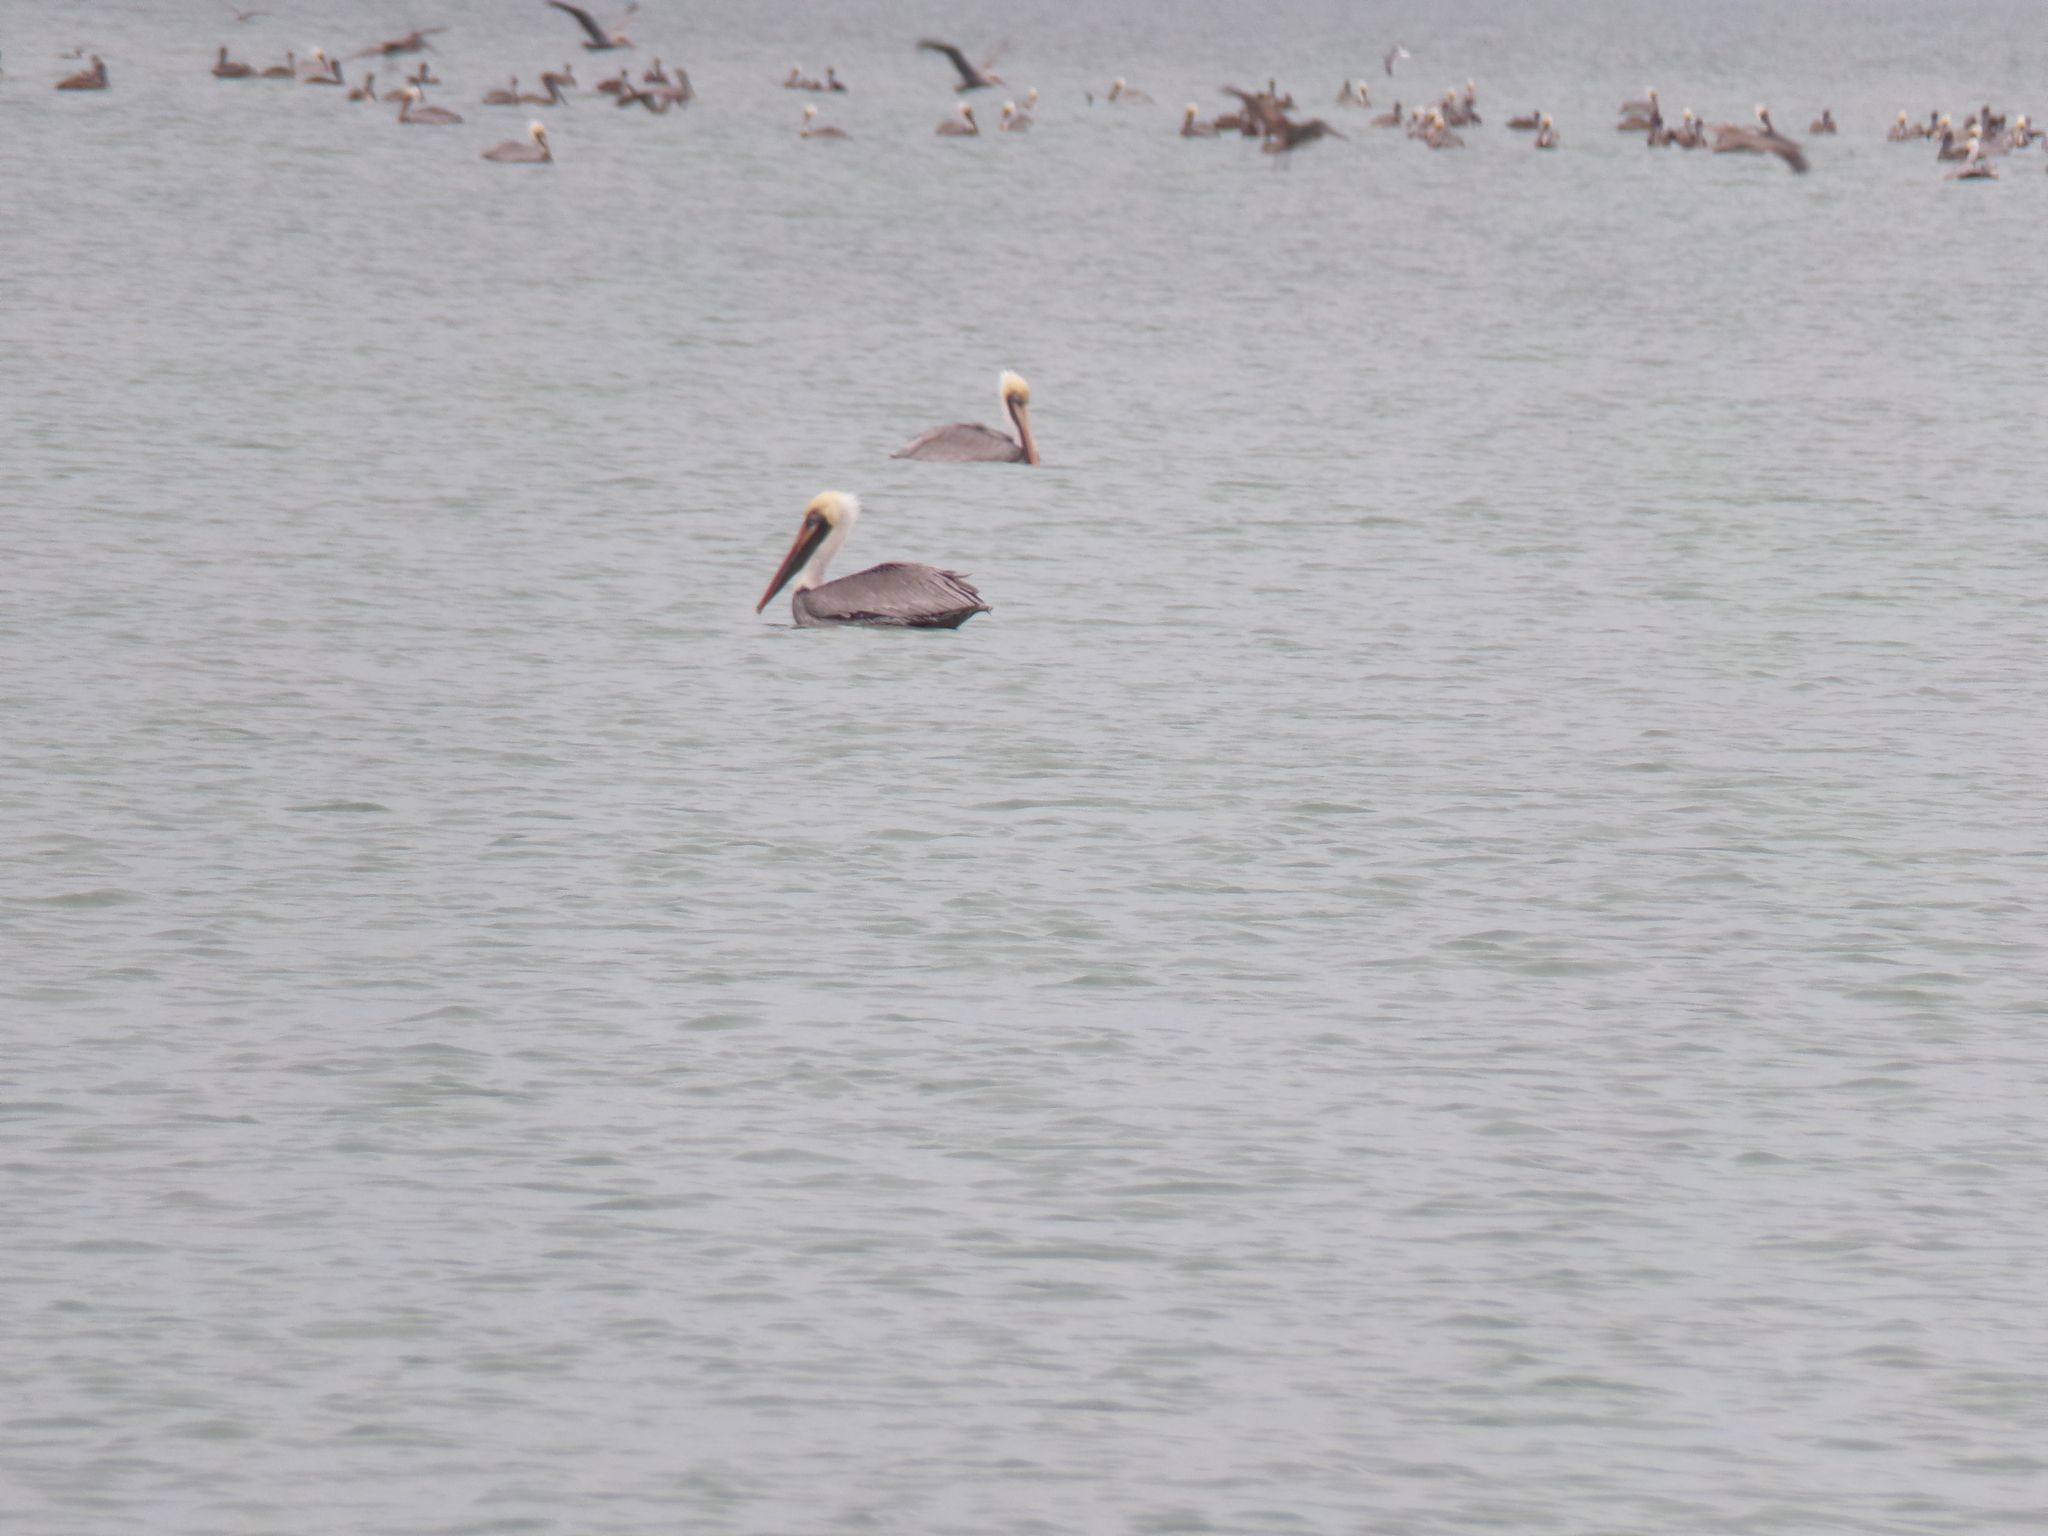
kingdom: Animalia
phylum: Chordata
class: Aves
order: Pelecaniformes
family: Pelecanidae
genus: Pelecanus
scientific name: Pelecanus occidentalis
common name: Brown pelican
